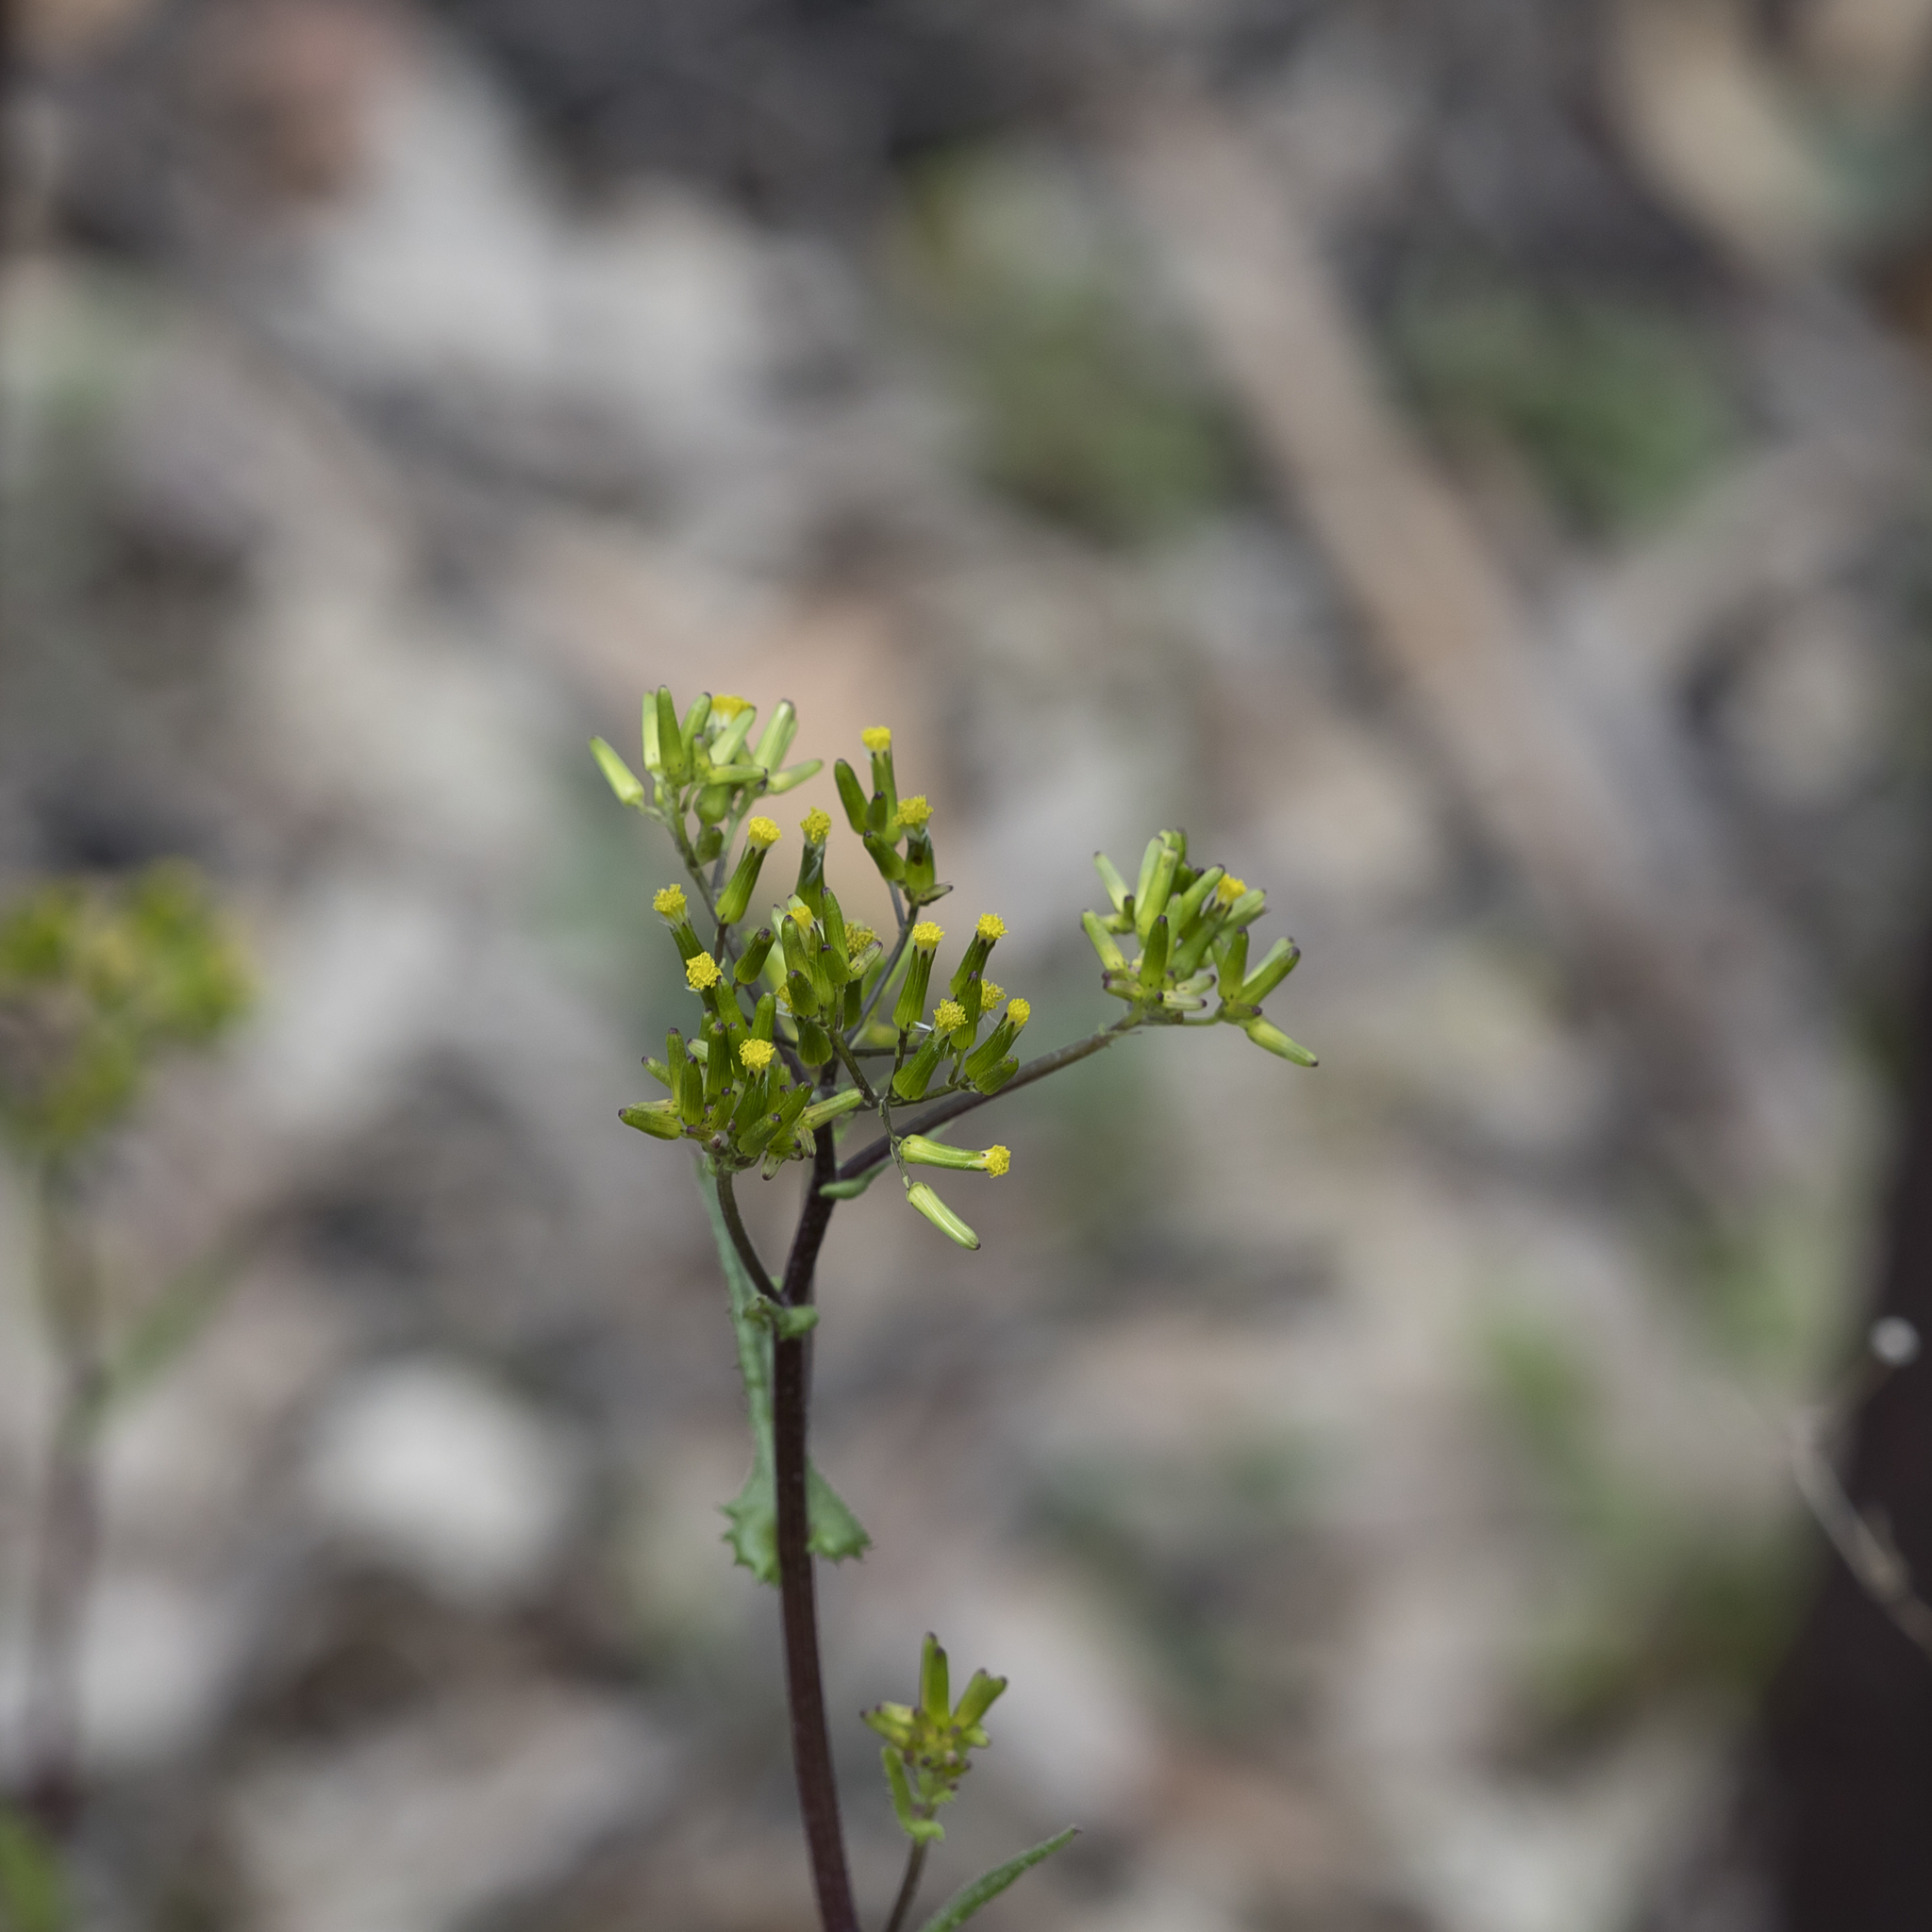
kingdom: Plantae
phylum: Tracheophyta
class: Magnoliopsida
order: Asterales
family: Asteraceae
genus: Senecio
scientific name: Senecio picridioides
